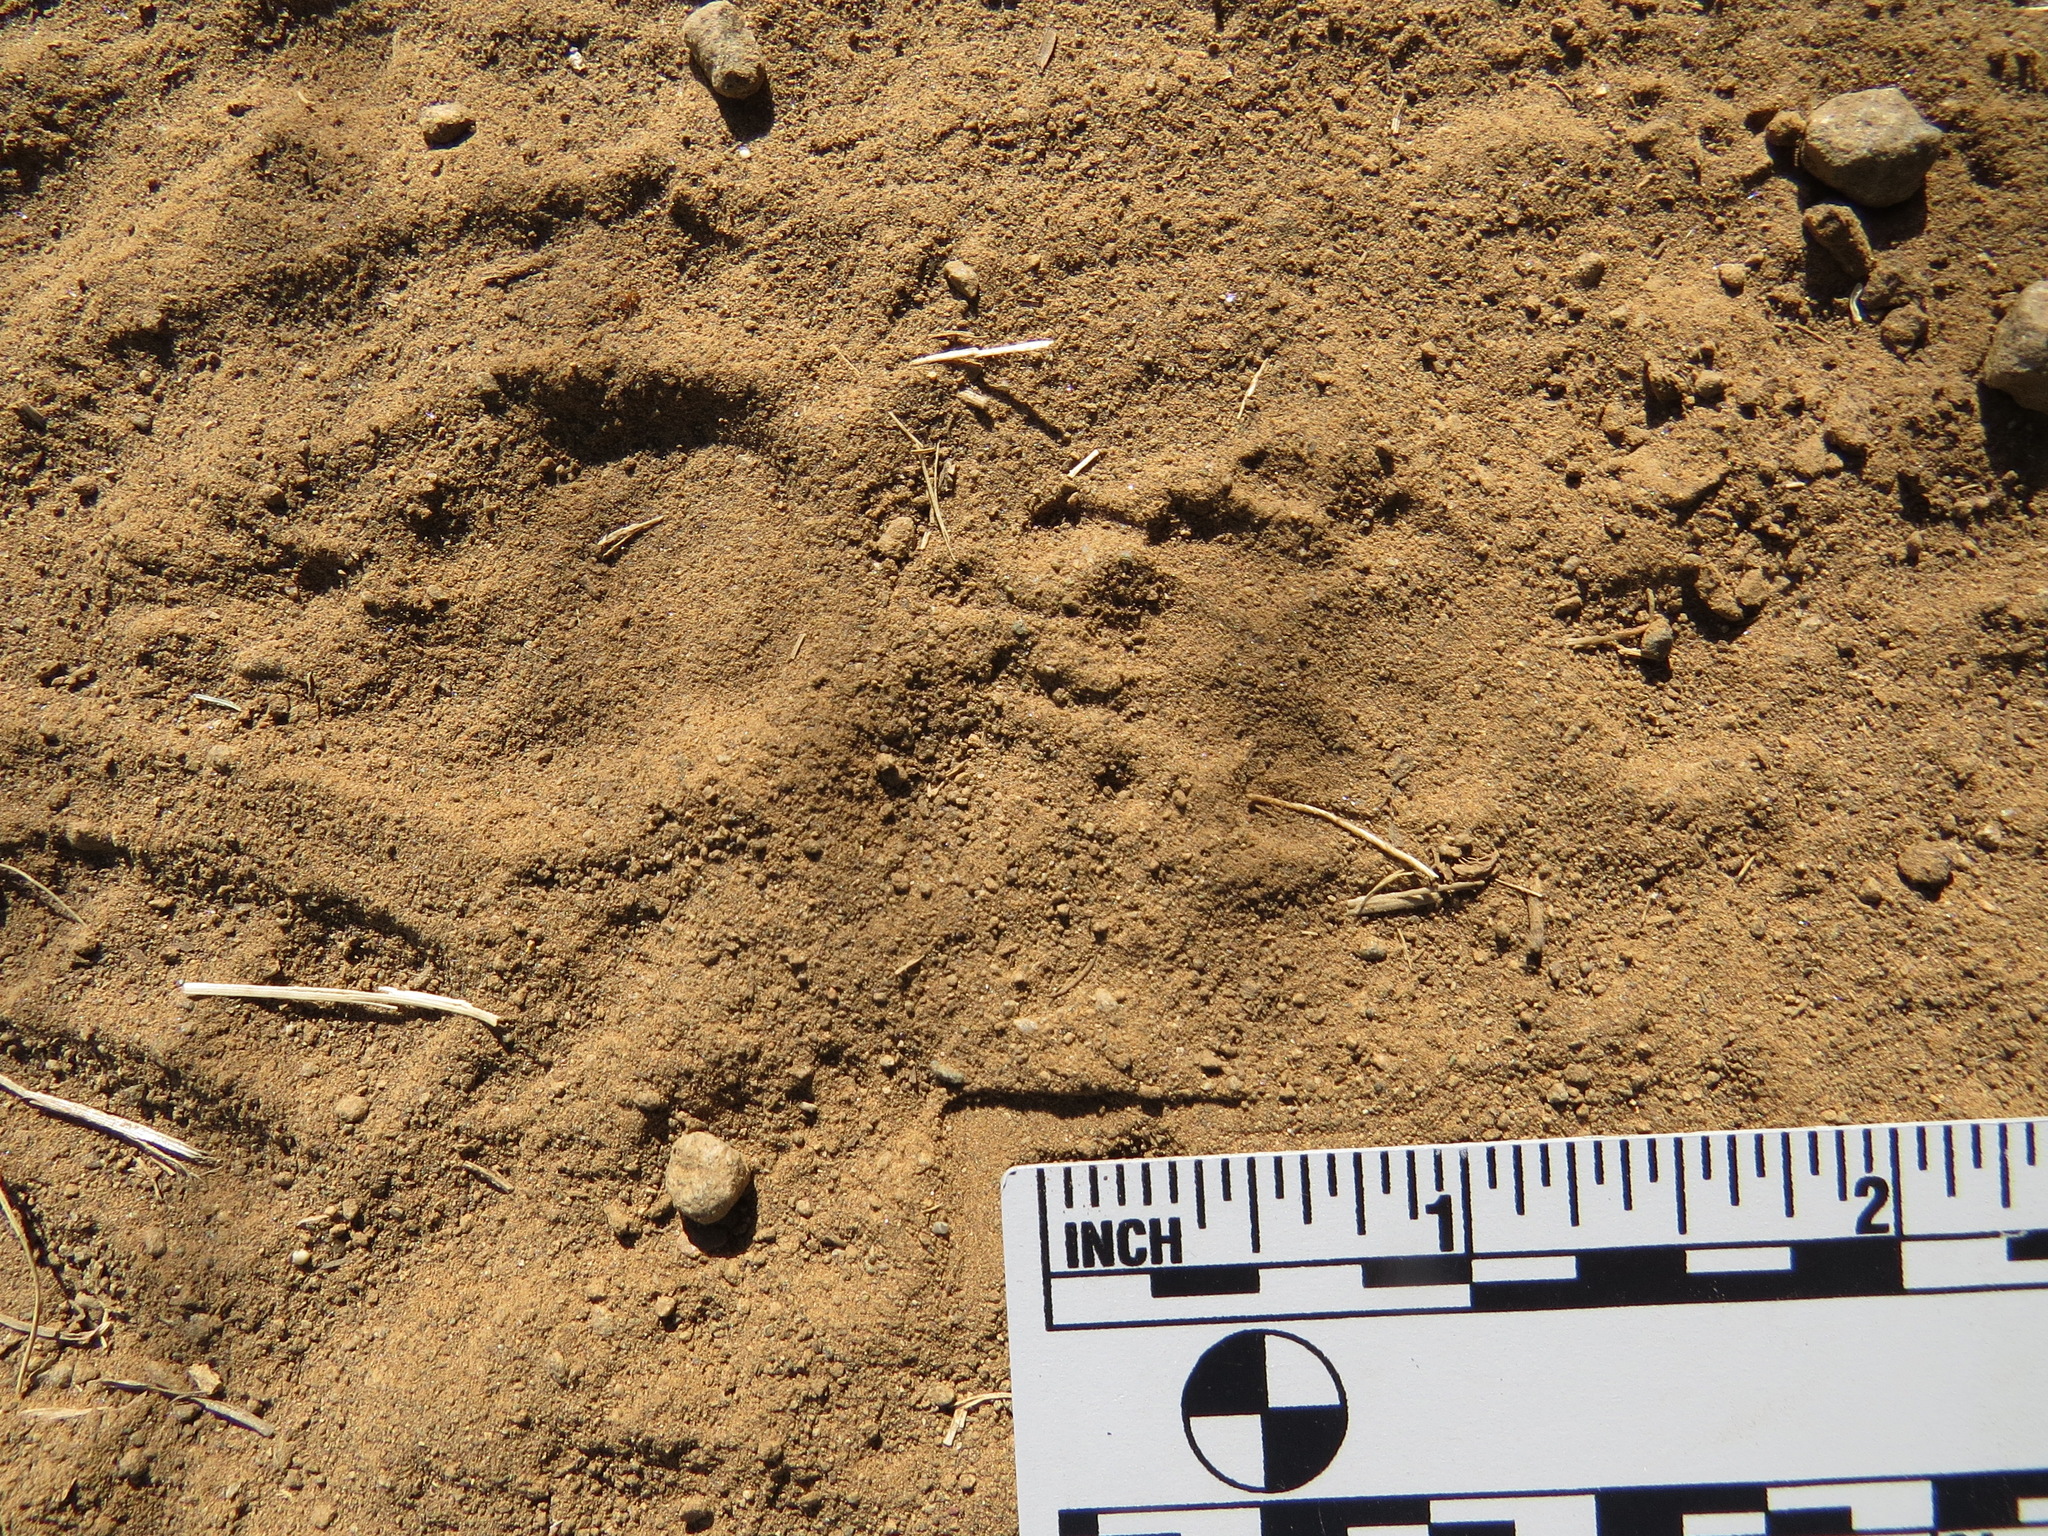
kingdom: Animalia
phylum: Chordata
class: Mammalia
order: Carnivora
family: Mephitidae
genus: Mephitis
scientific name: Mephitis mephitis
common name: Striped skunk
